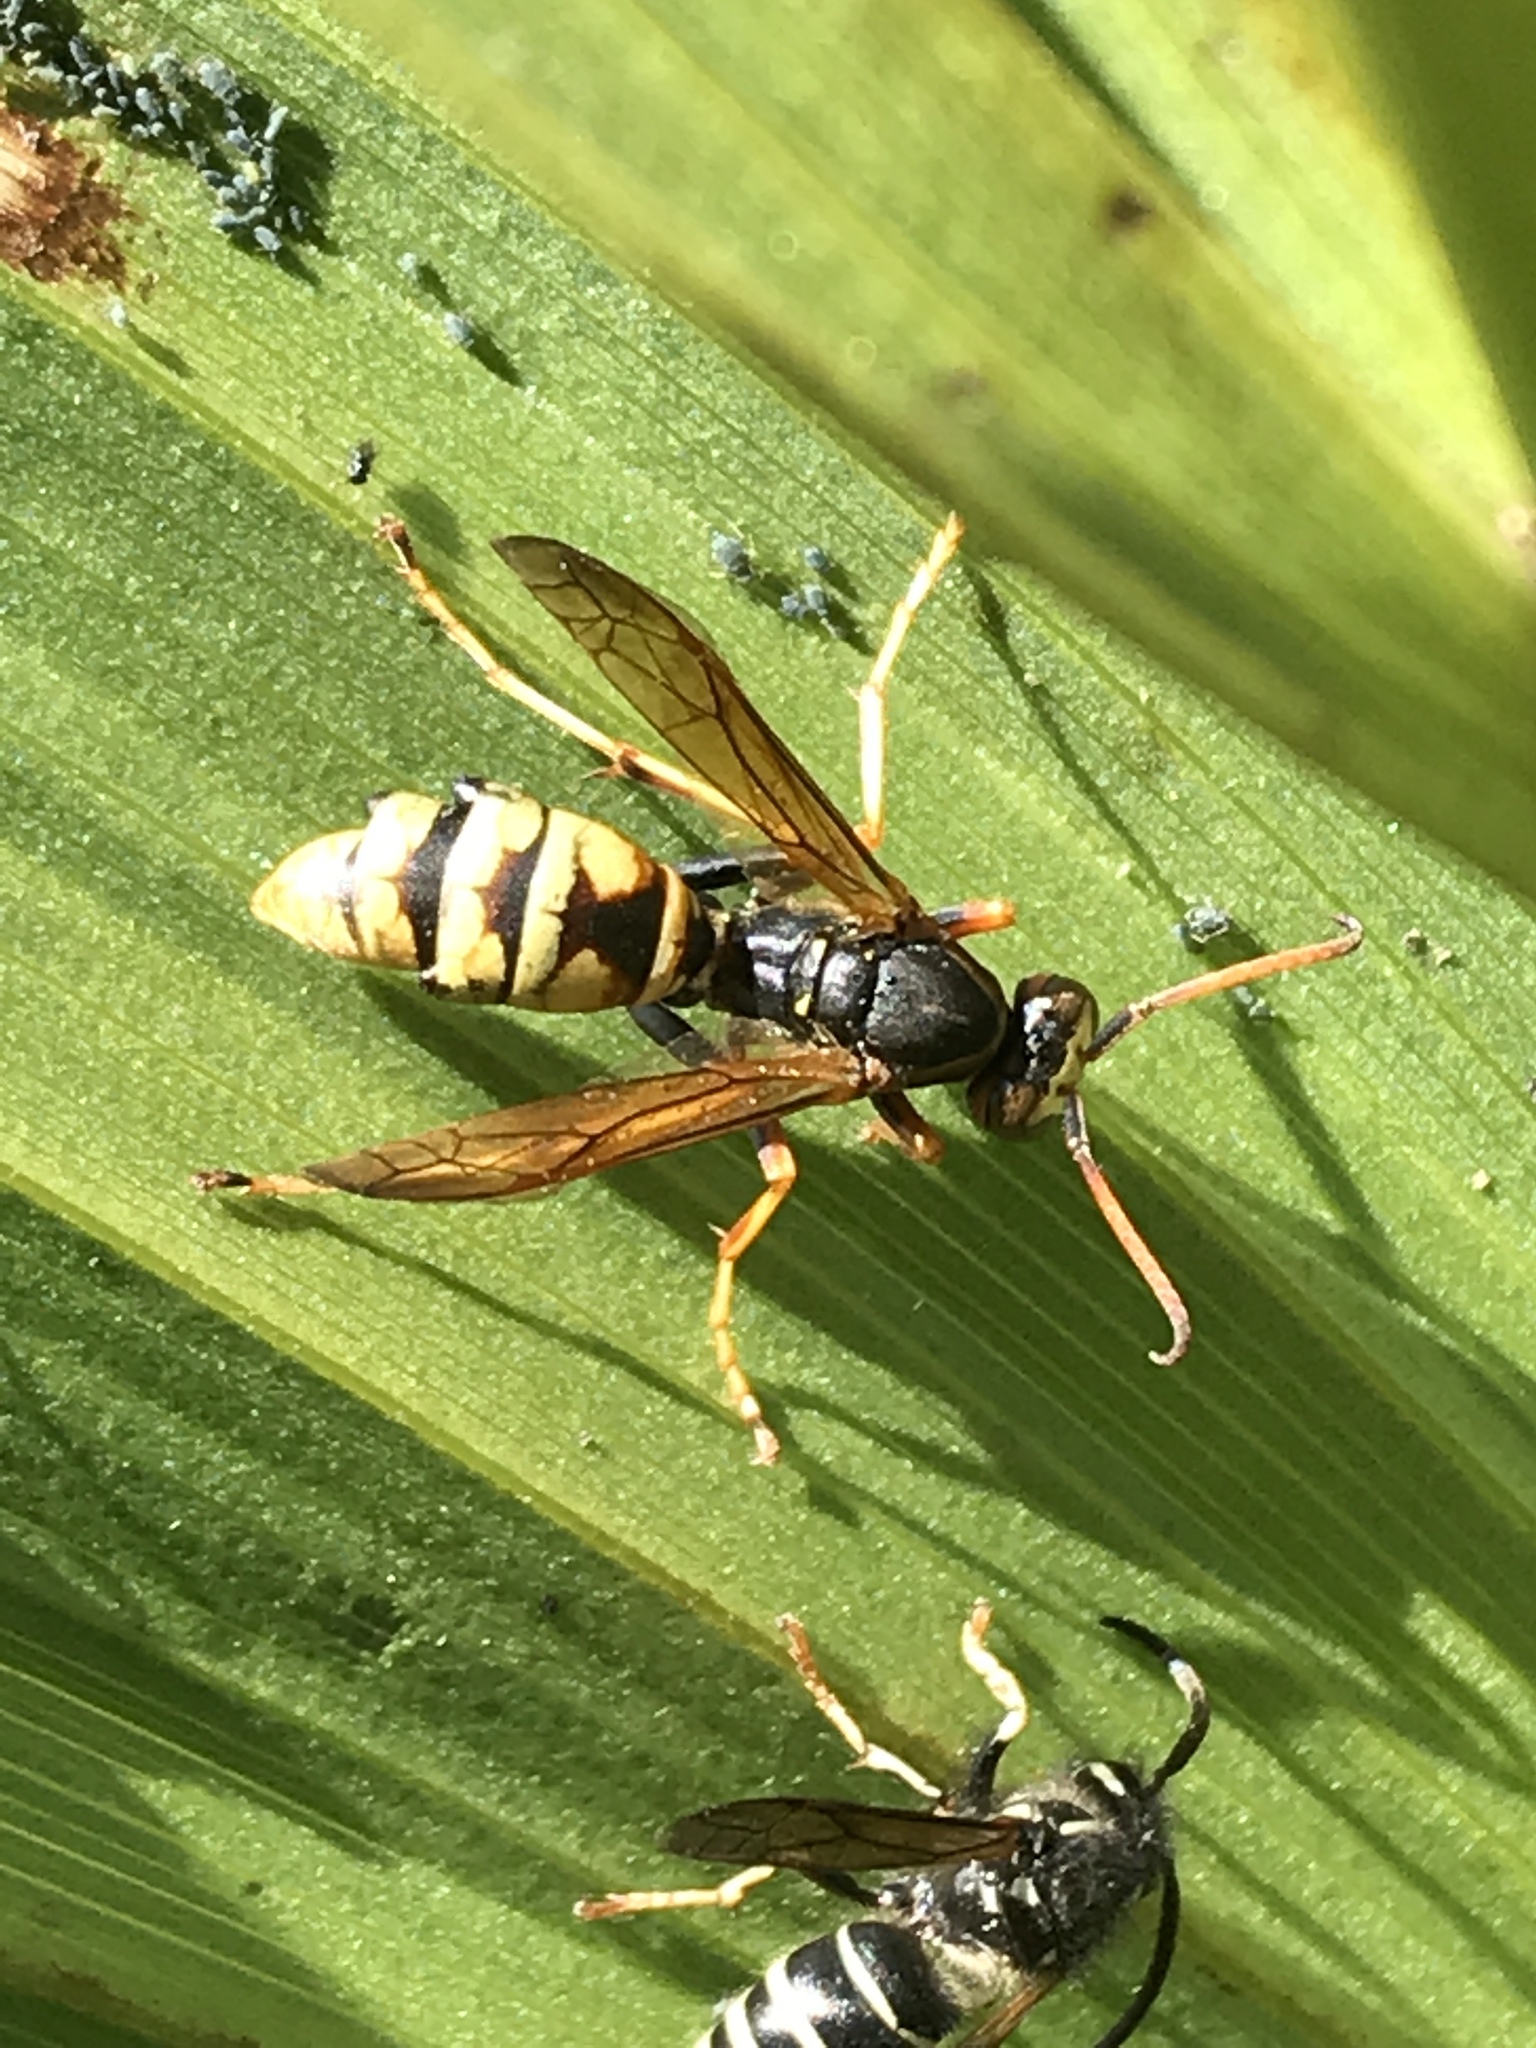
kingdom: Animalia
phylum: Arthropoda
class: Insecta
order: Hymenoptera
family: Eumenidae
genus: Polistes
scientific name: Polistes aurifer
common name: Paper wasp
